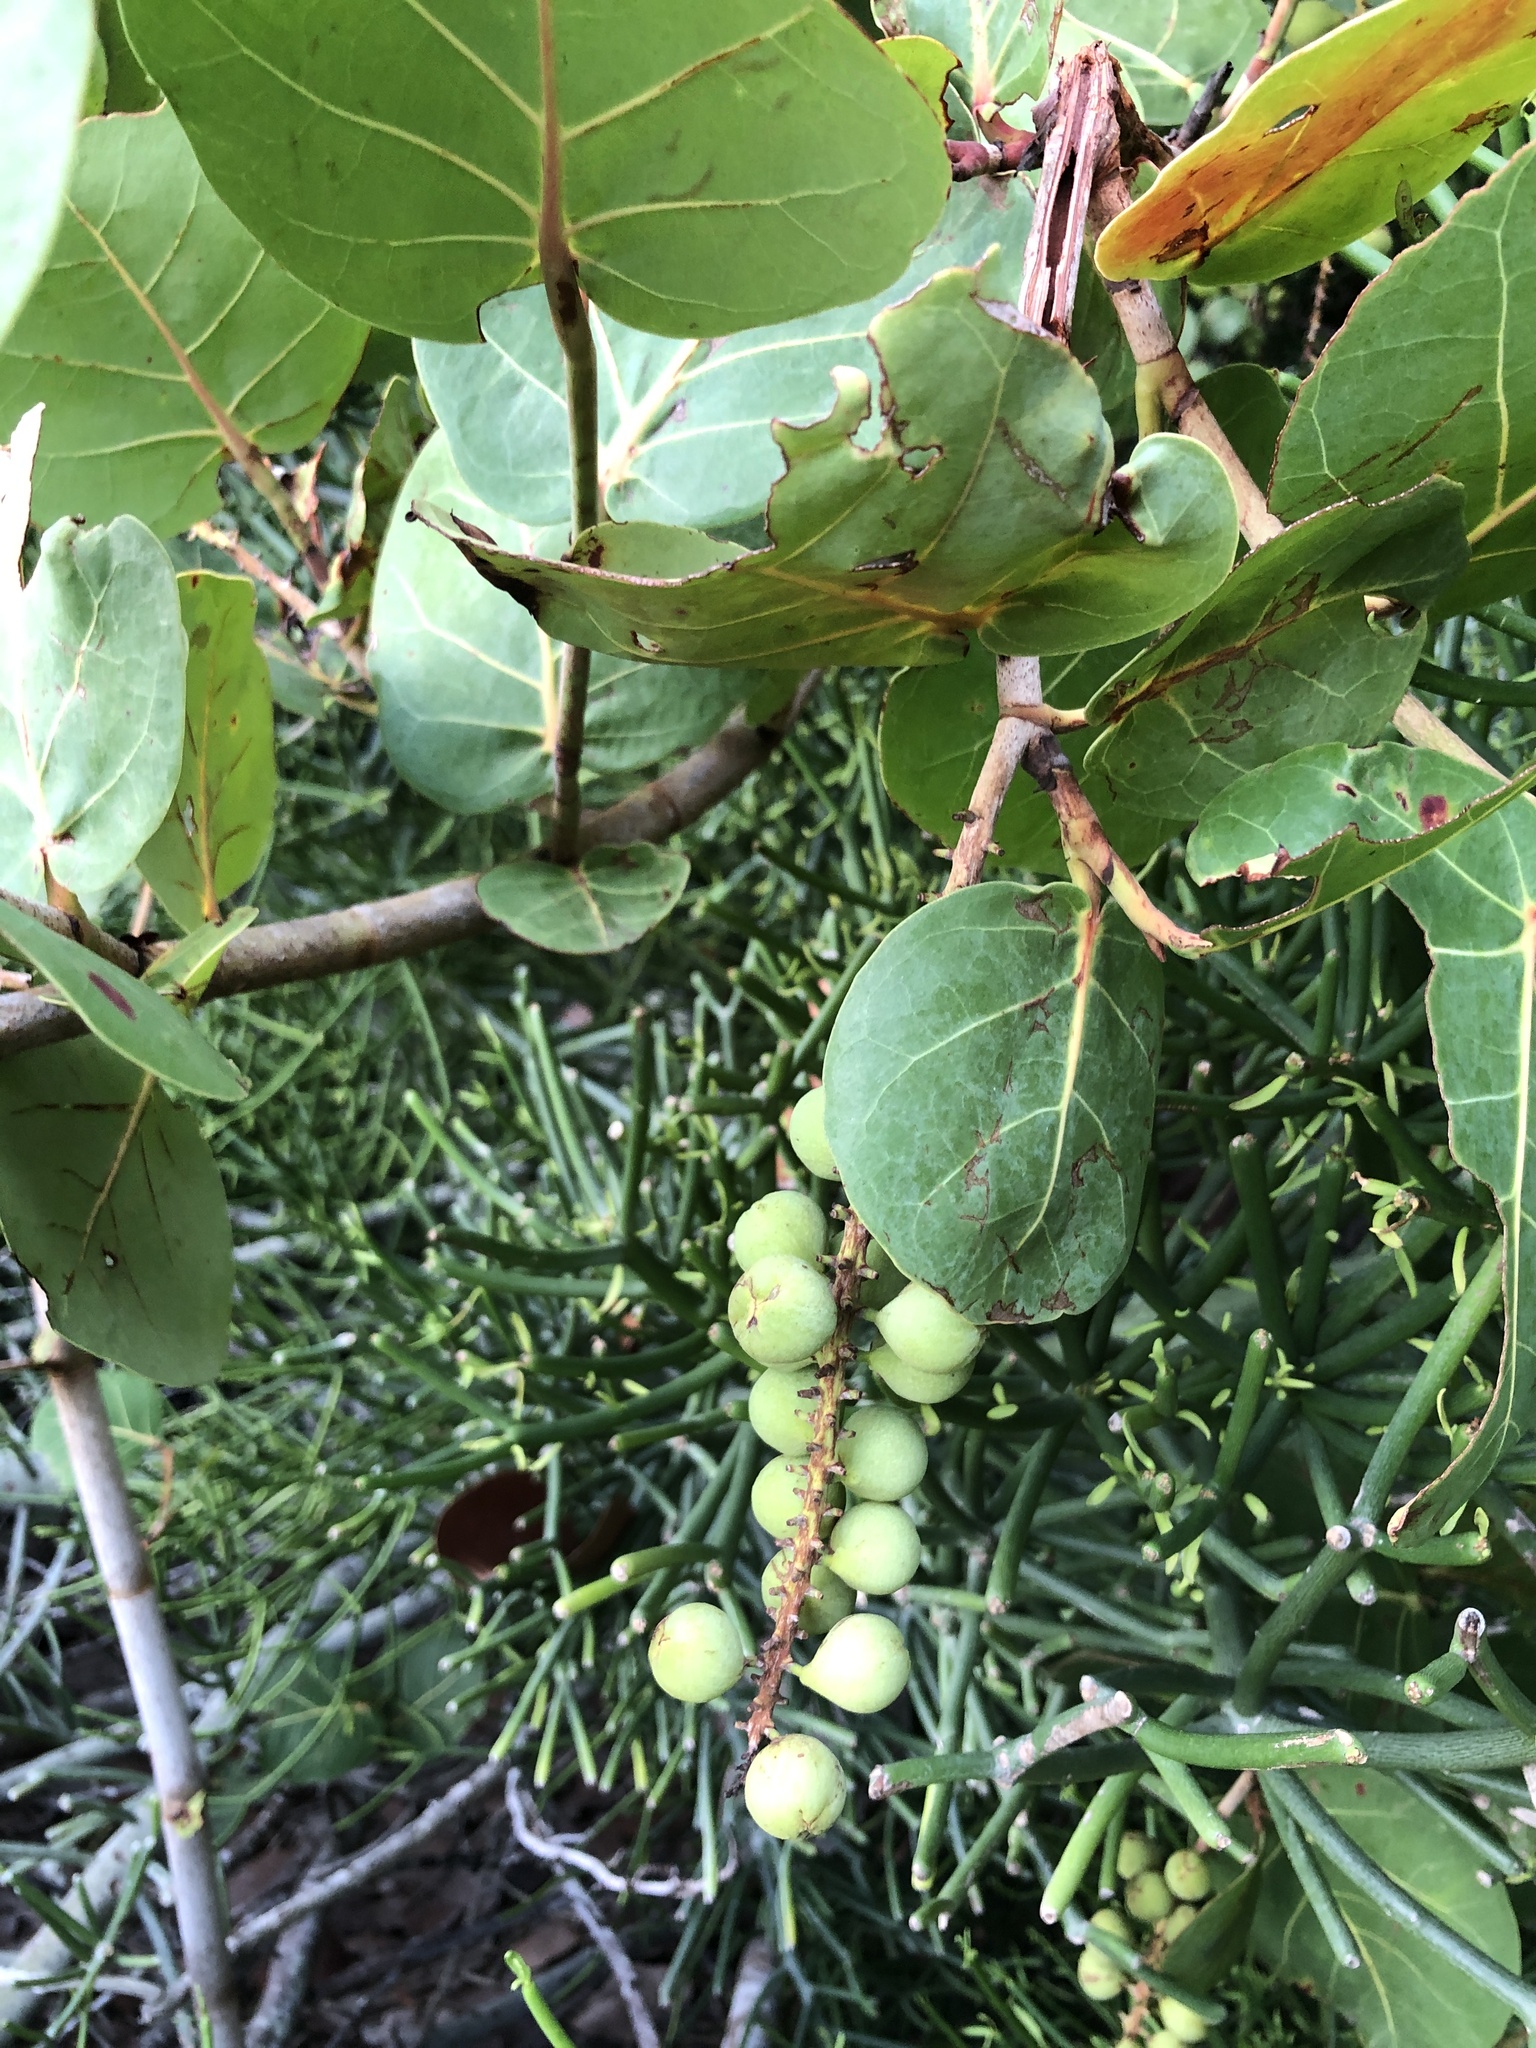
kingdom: Plantae
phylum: Tracheophyta
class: Magnoliopsida
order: Caryophyllales
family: Polygonaceae
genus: Coccoloba
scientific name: Coccoloba uvifera
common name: Seagrape
